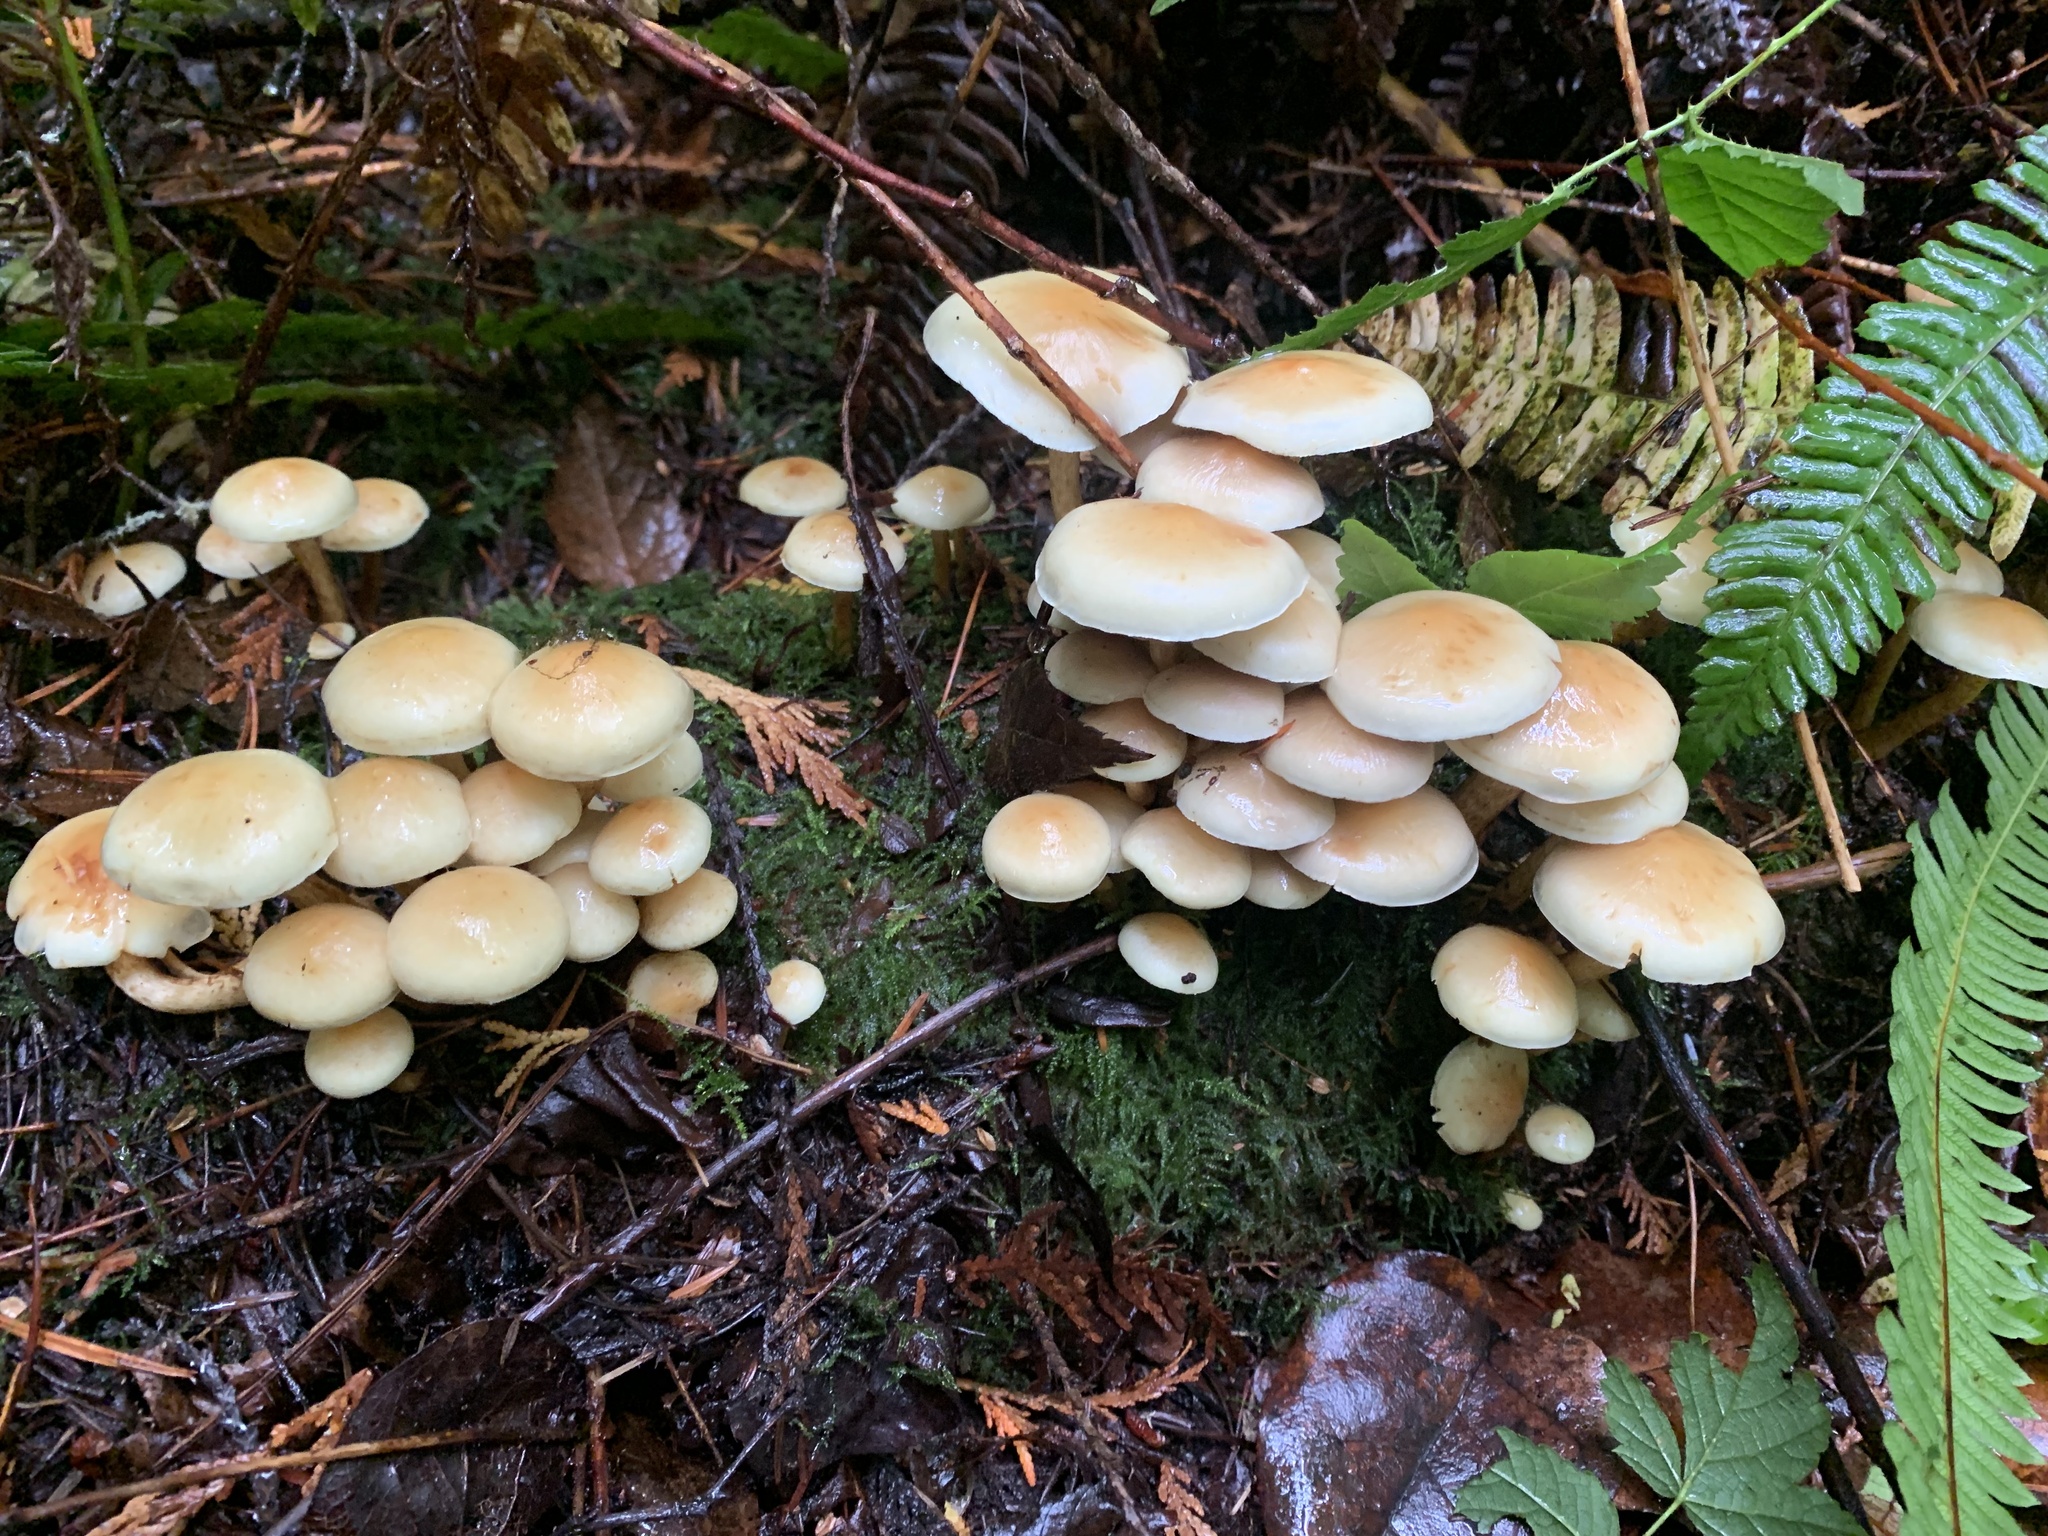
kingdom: Fungi
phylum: Basidiomycota
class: Agaricomycetes
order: Agaricales
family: Strophariaceae
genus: Hypholoma
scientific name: Hypholoma fasciculare
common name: Sulphur tuft
